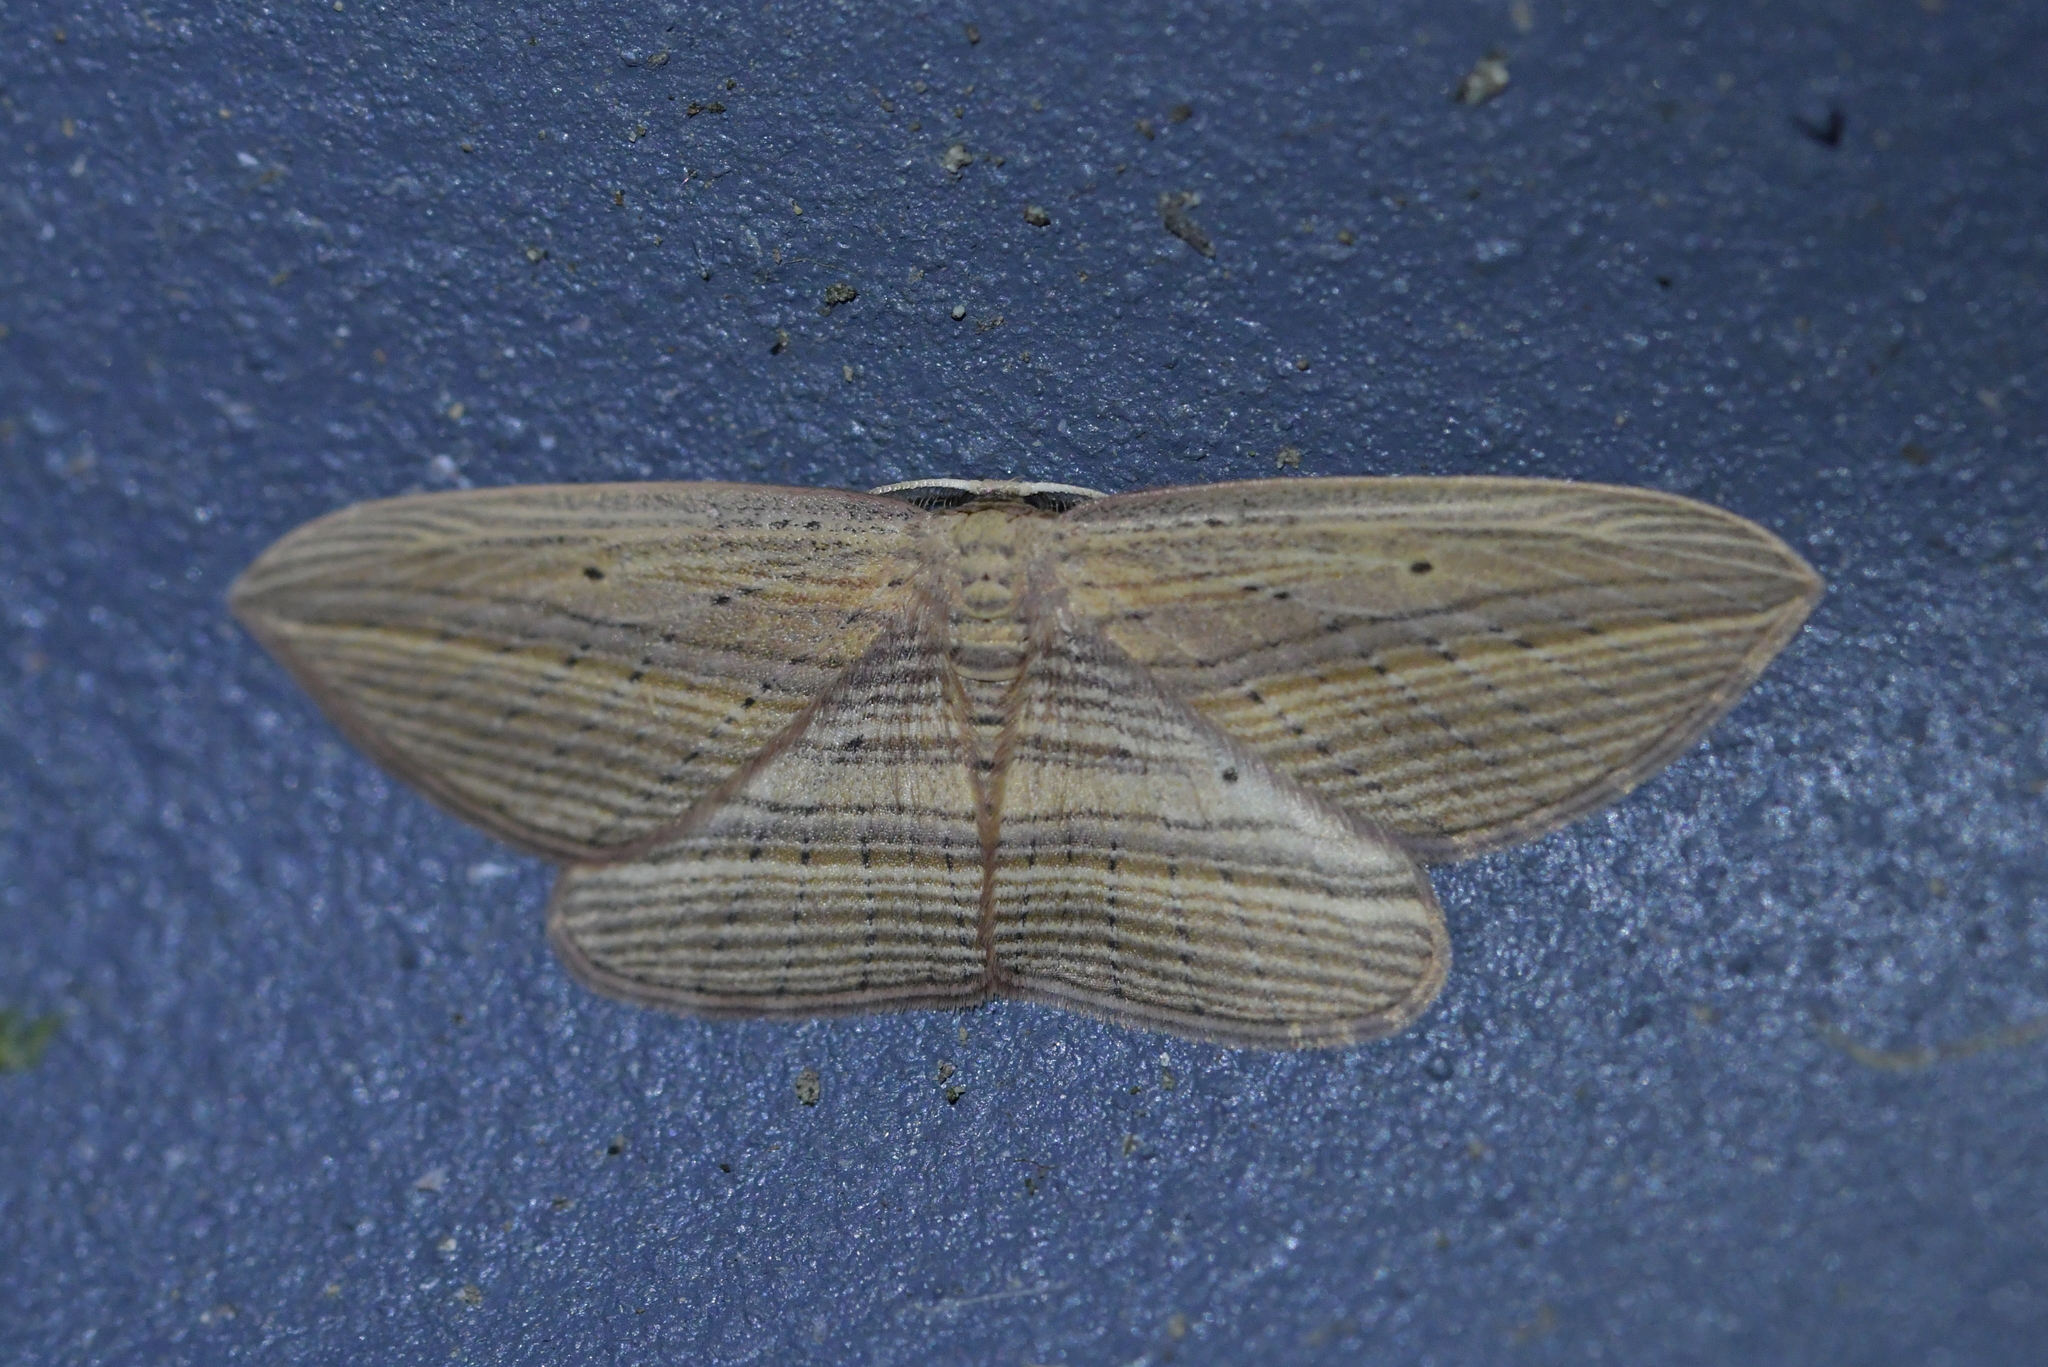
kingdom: Animalia
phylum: Arthropoda
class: Insecta
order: Lepidoptera
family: Geometridae
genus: Epiphryne
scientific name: Epiphryne verriculata
